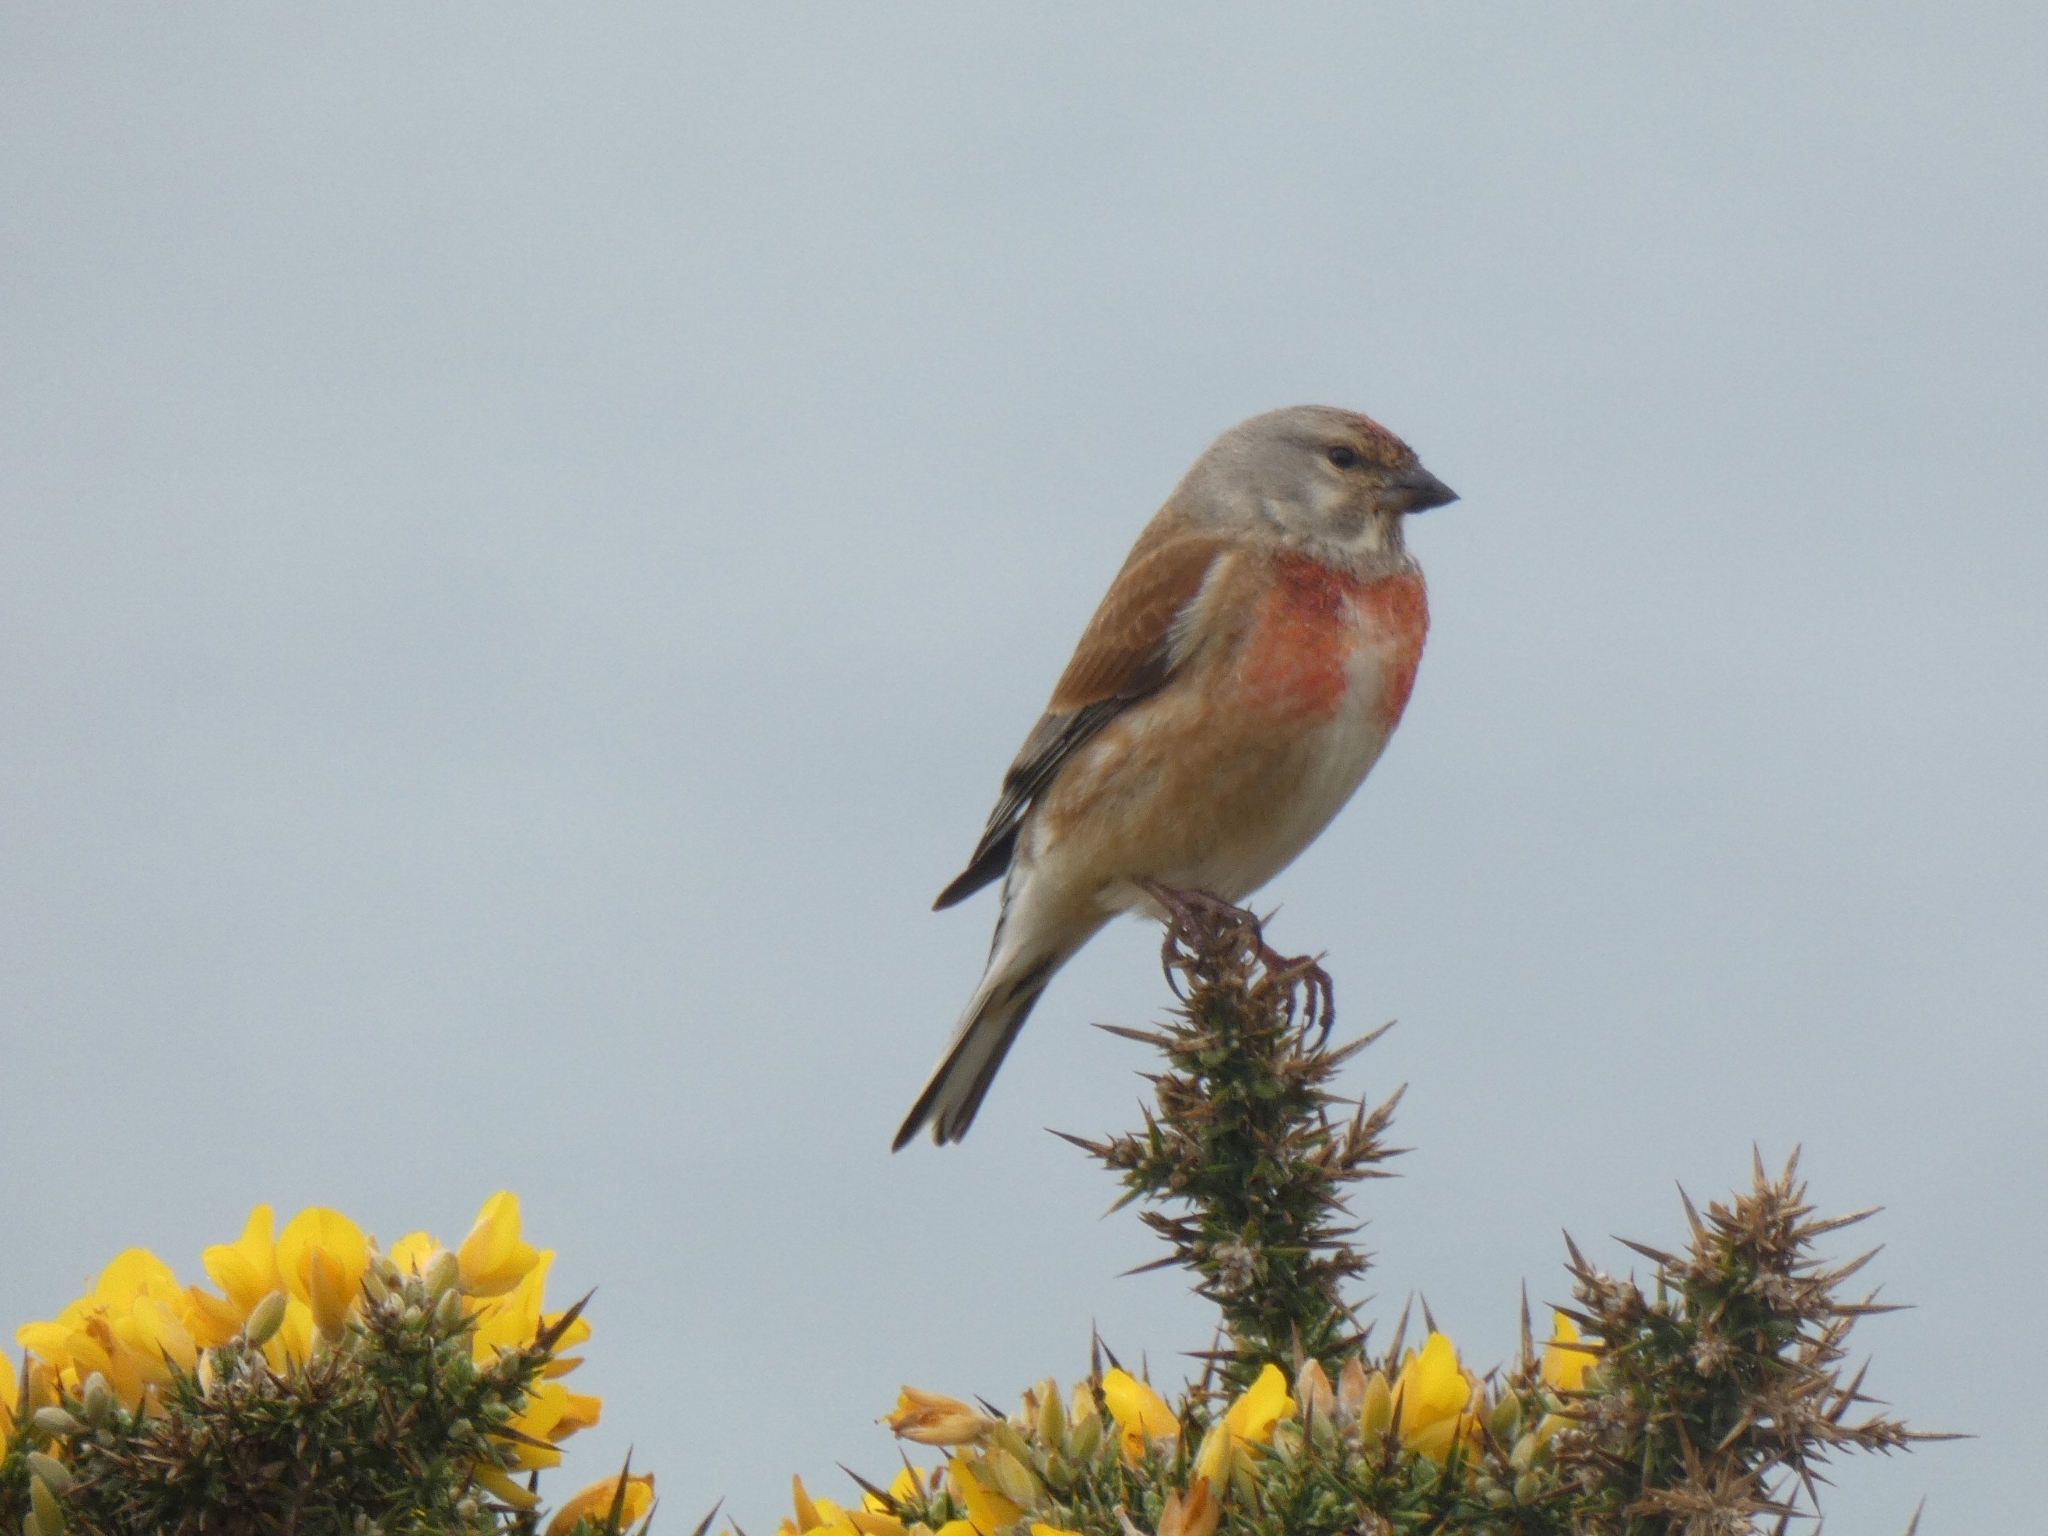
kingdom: Animalia
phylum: Chordata
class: Aves
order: Passeriformes
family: Fringillidae
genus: Linaria
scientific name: Linaria cannabina
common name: Common linnet
